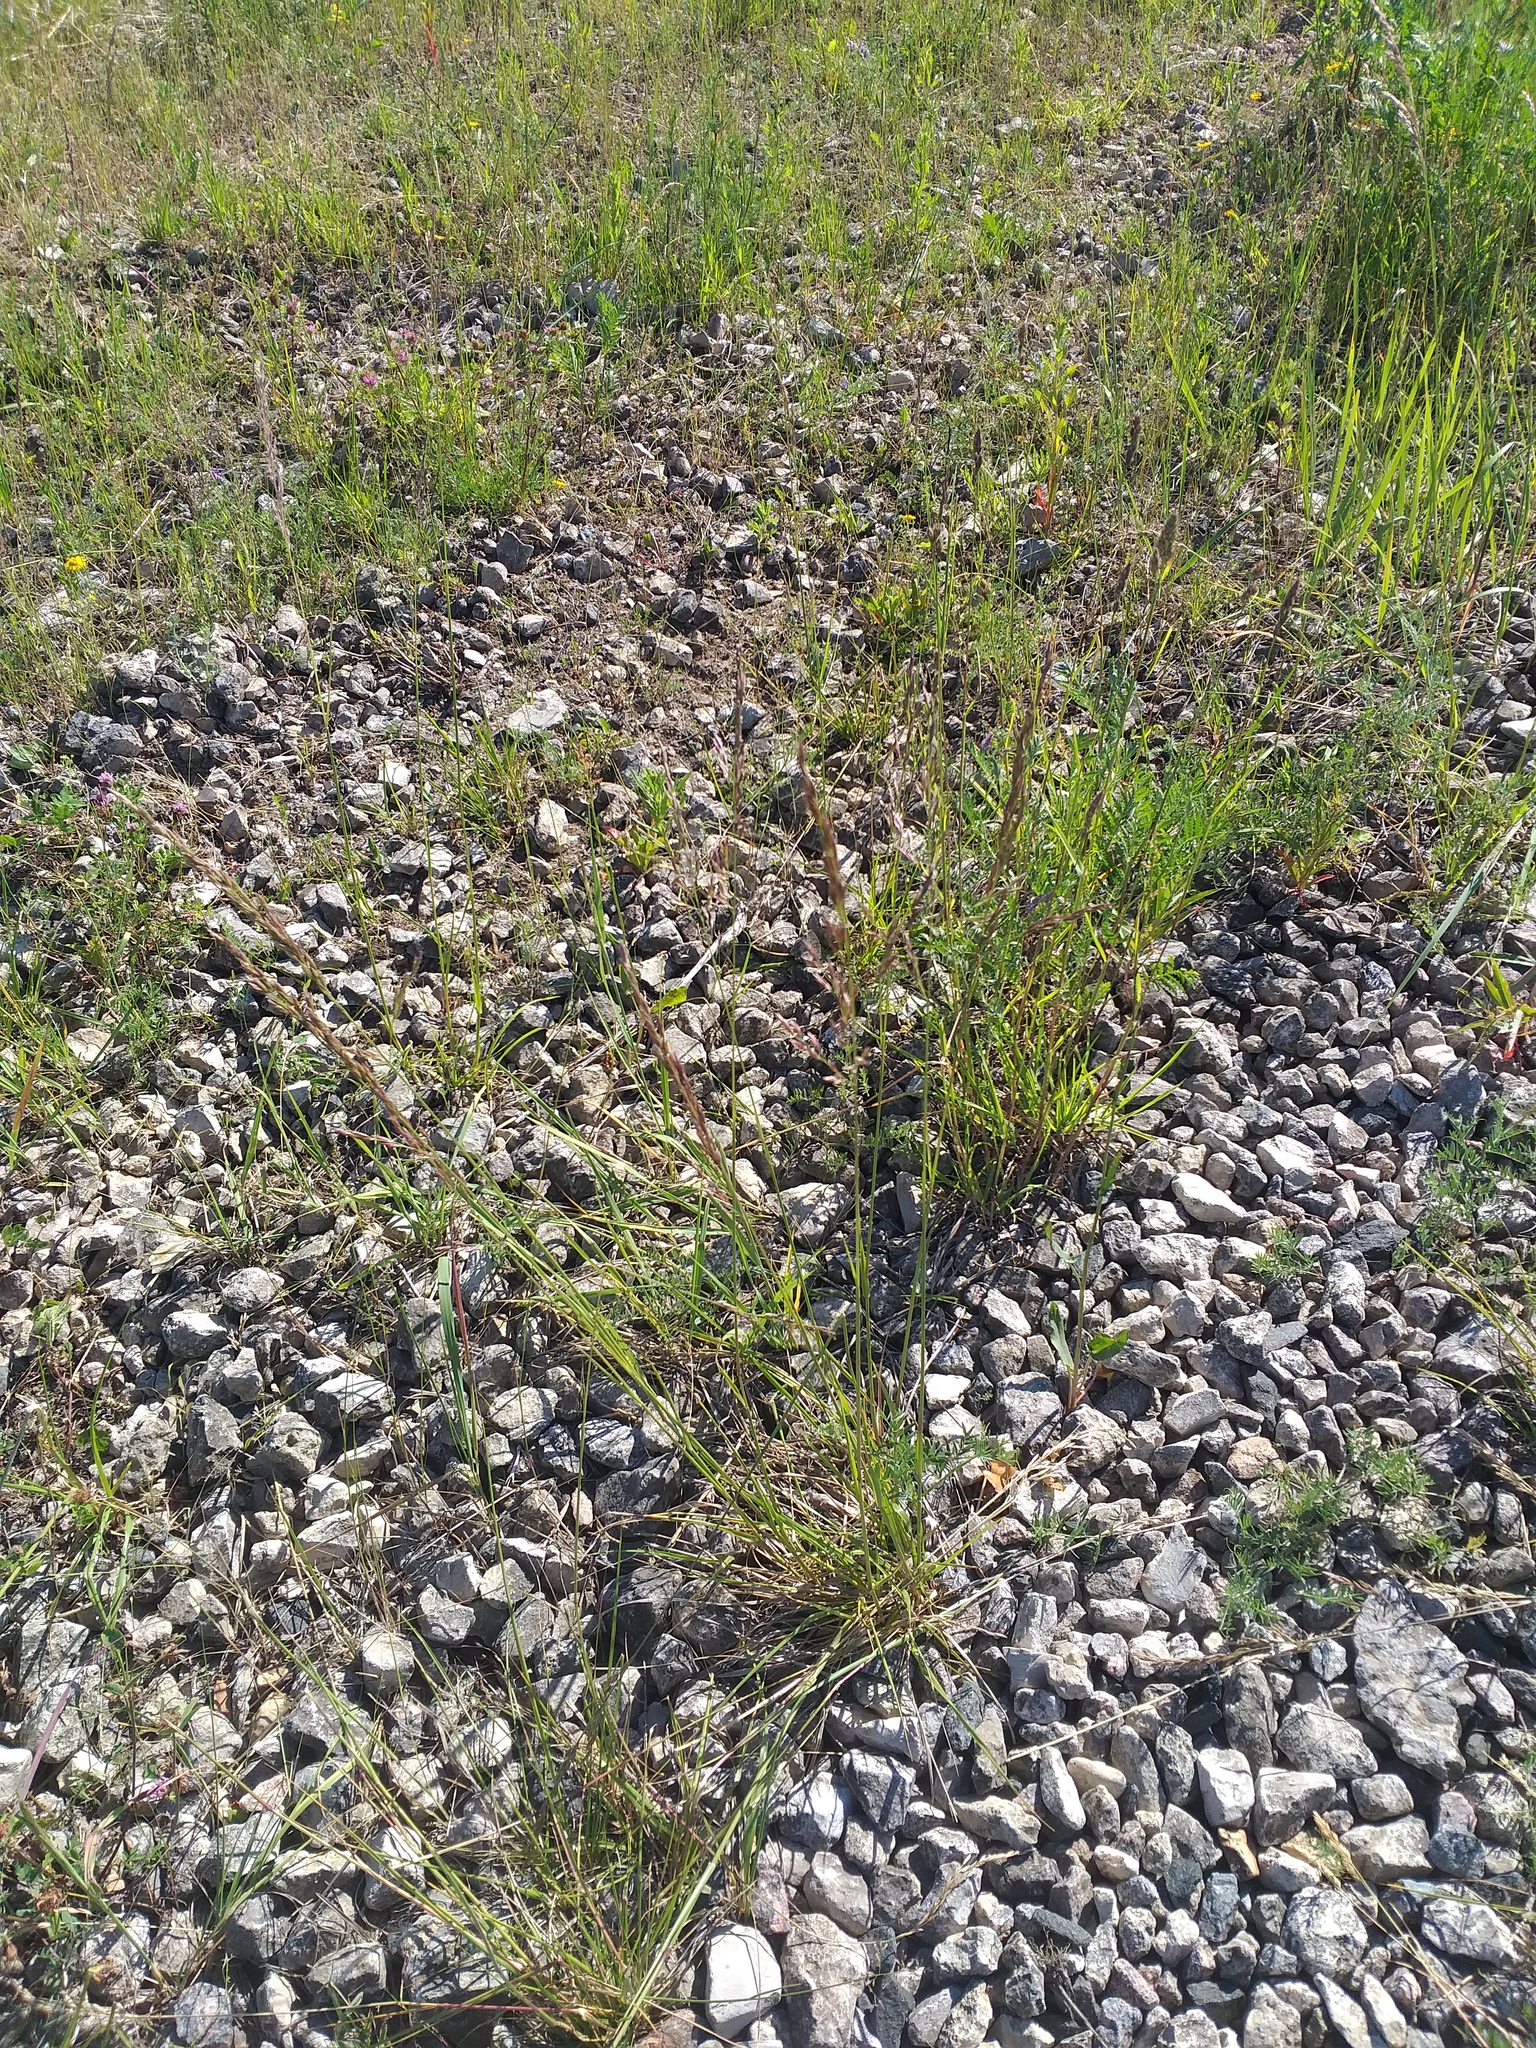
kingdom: Plantae
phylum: Tracheophyta
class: Liliopsida
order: Poales
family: Poaceae
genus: Lolium
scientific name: Lolium arundinaceum
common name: Reed fescue
